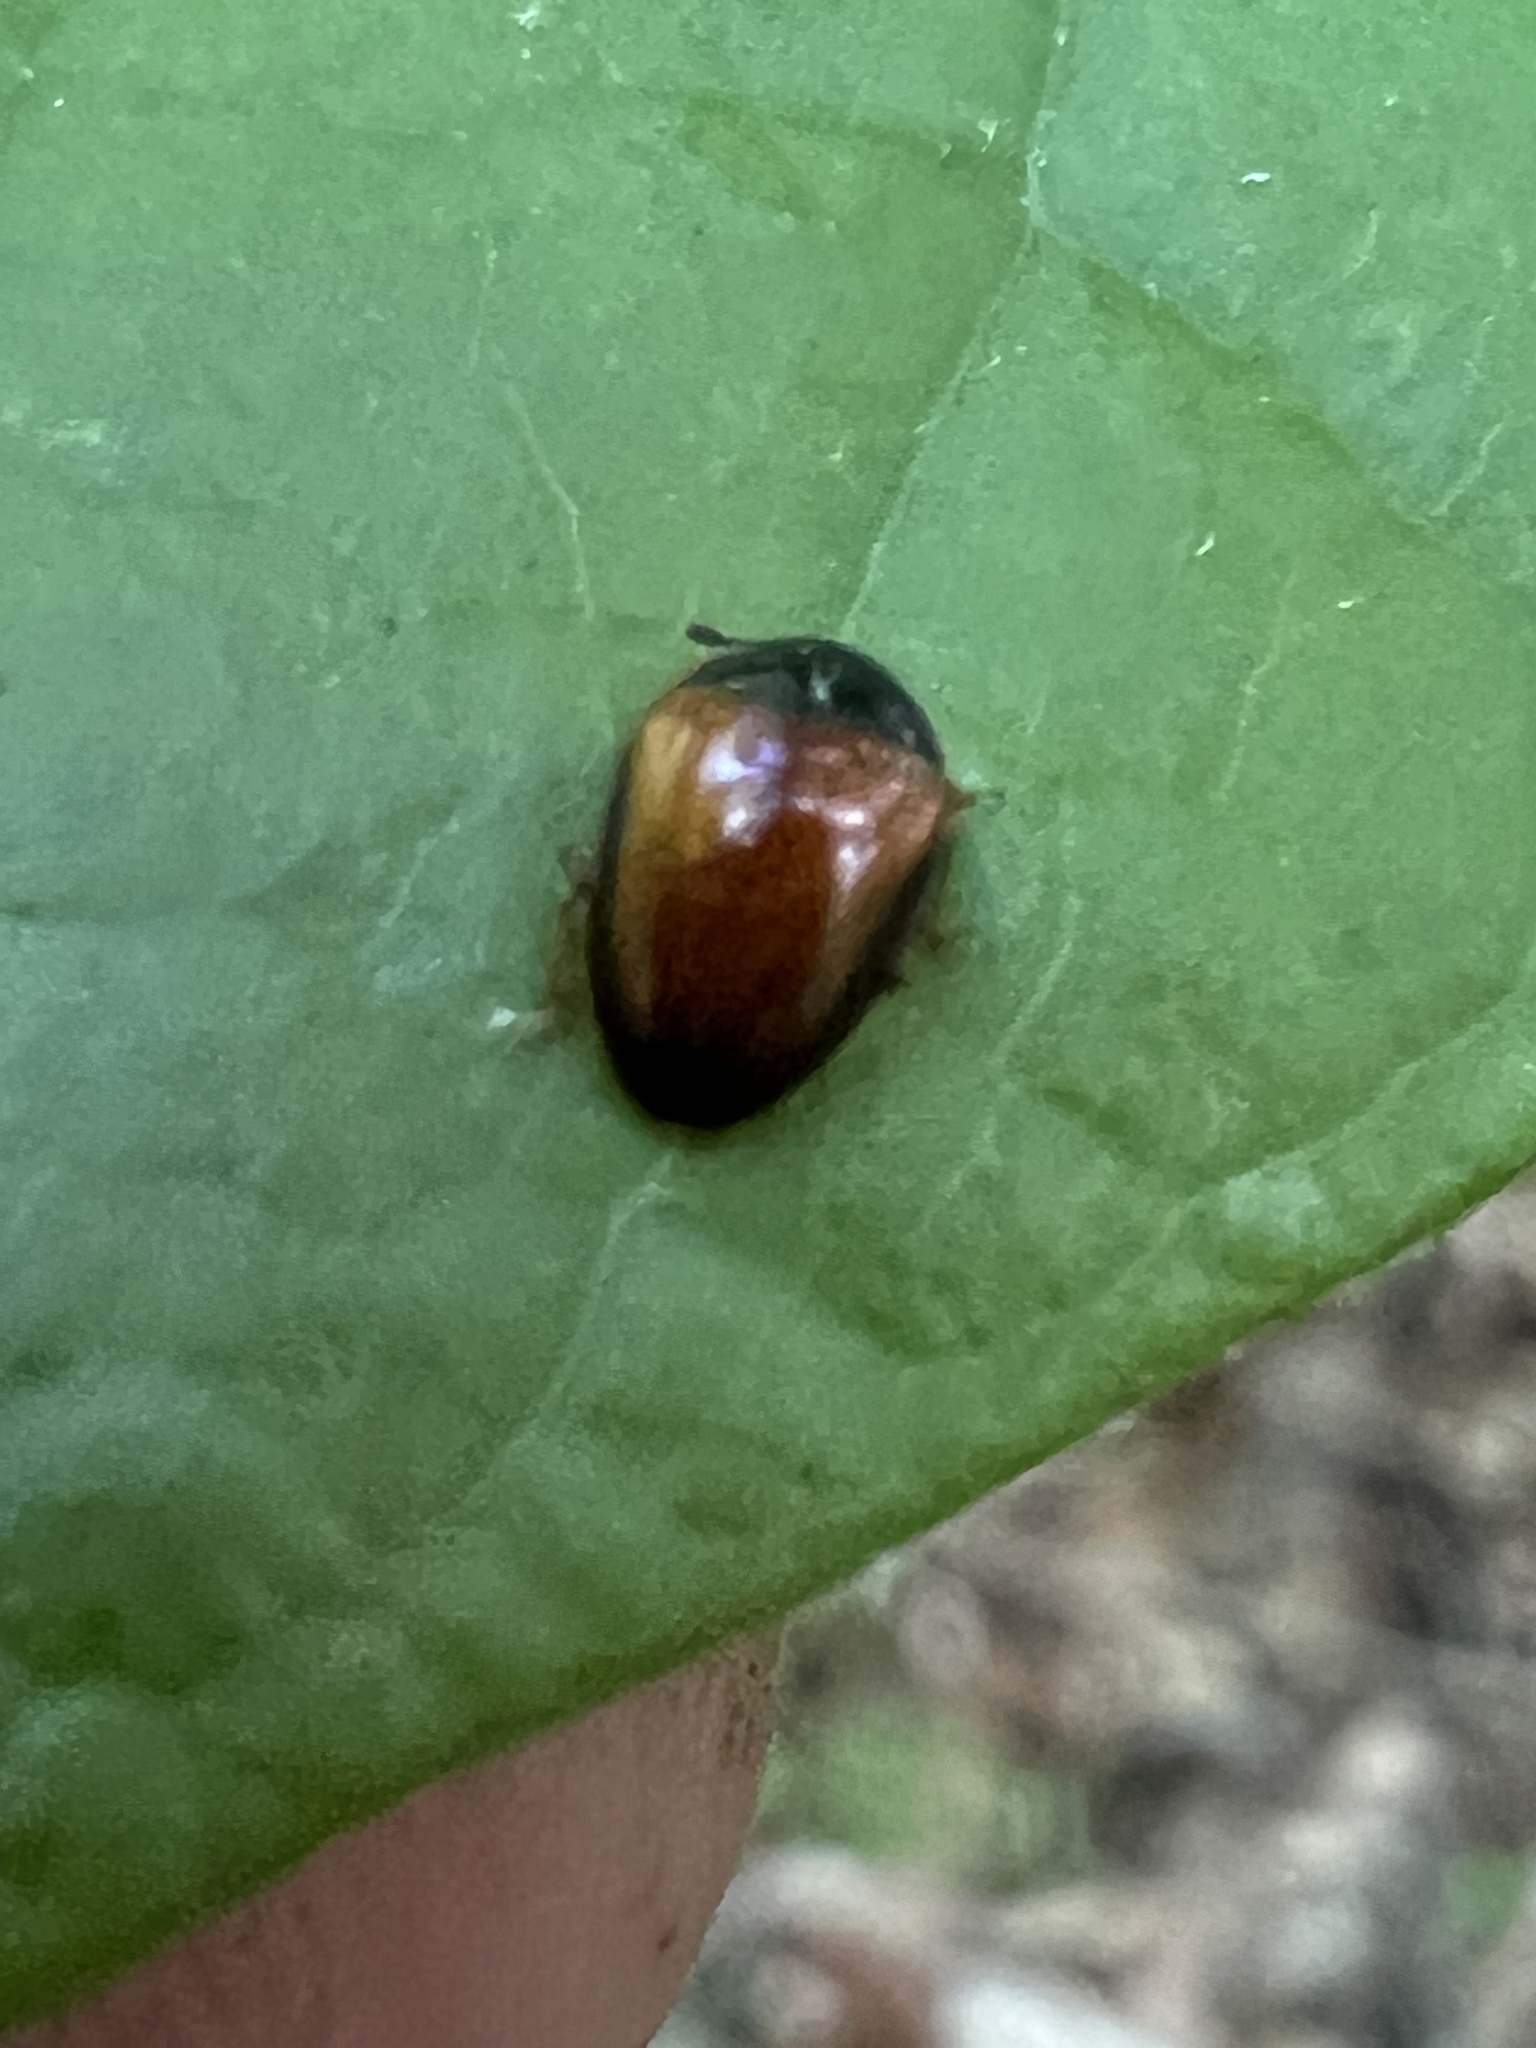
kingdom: Animalia
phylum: Arthropoda
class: Insecta
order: Coleoptera
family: Erotylidae
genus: Tritoma
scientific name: Tritoma mimetica
